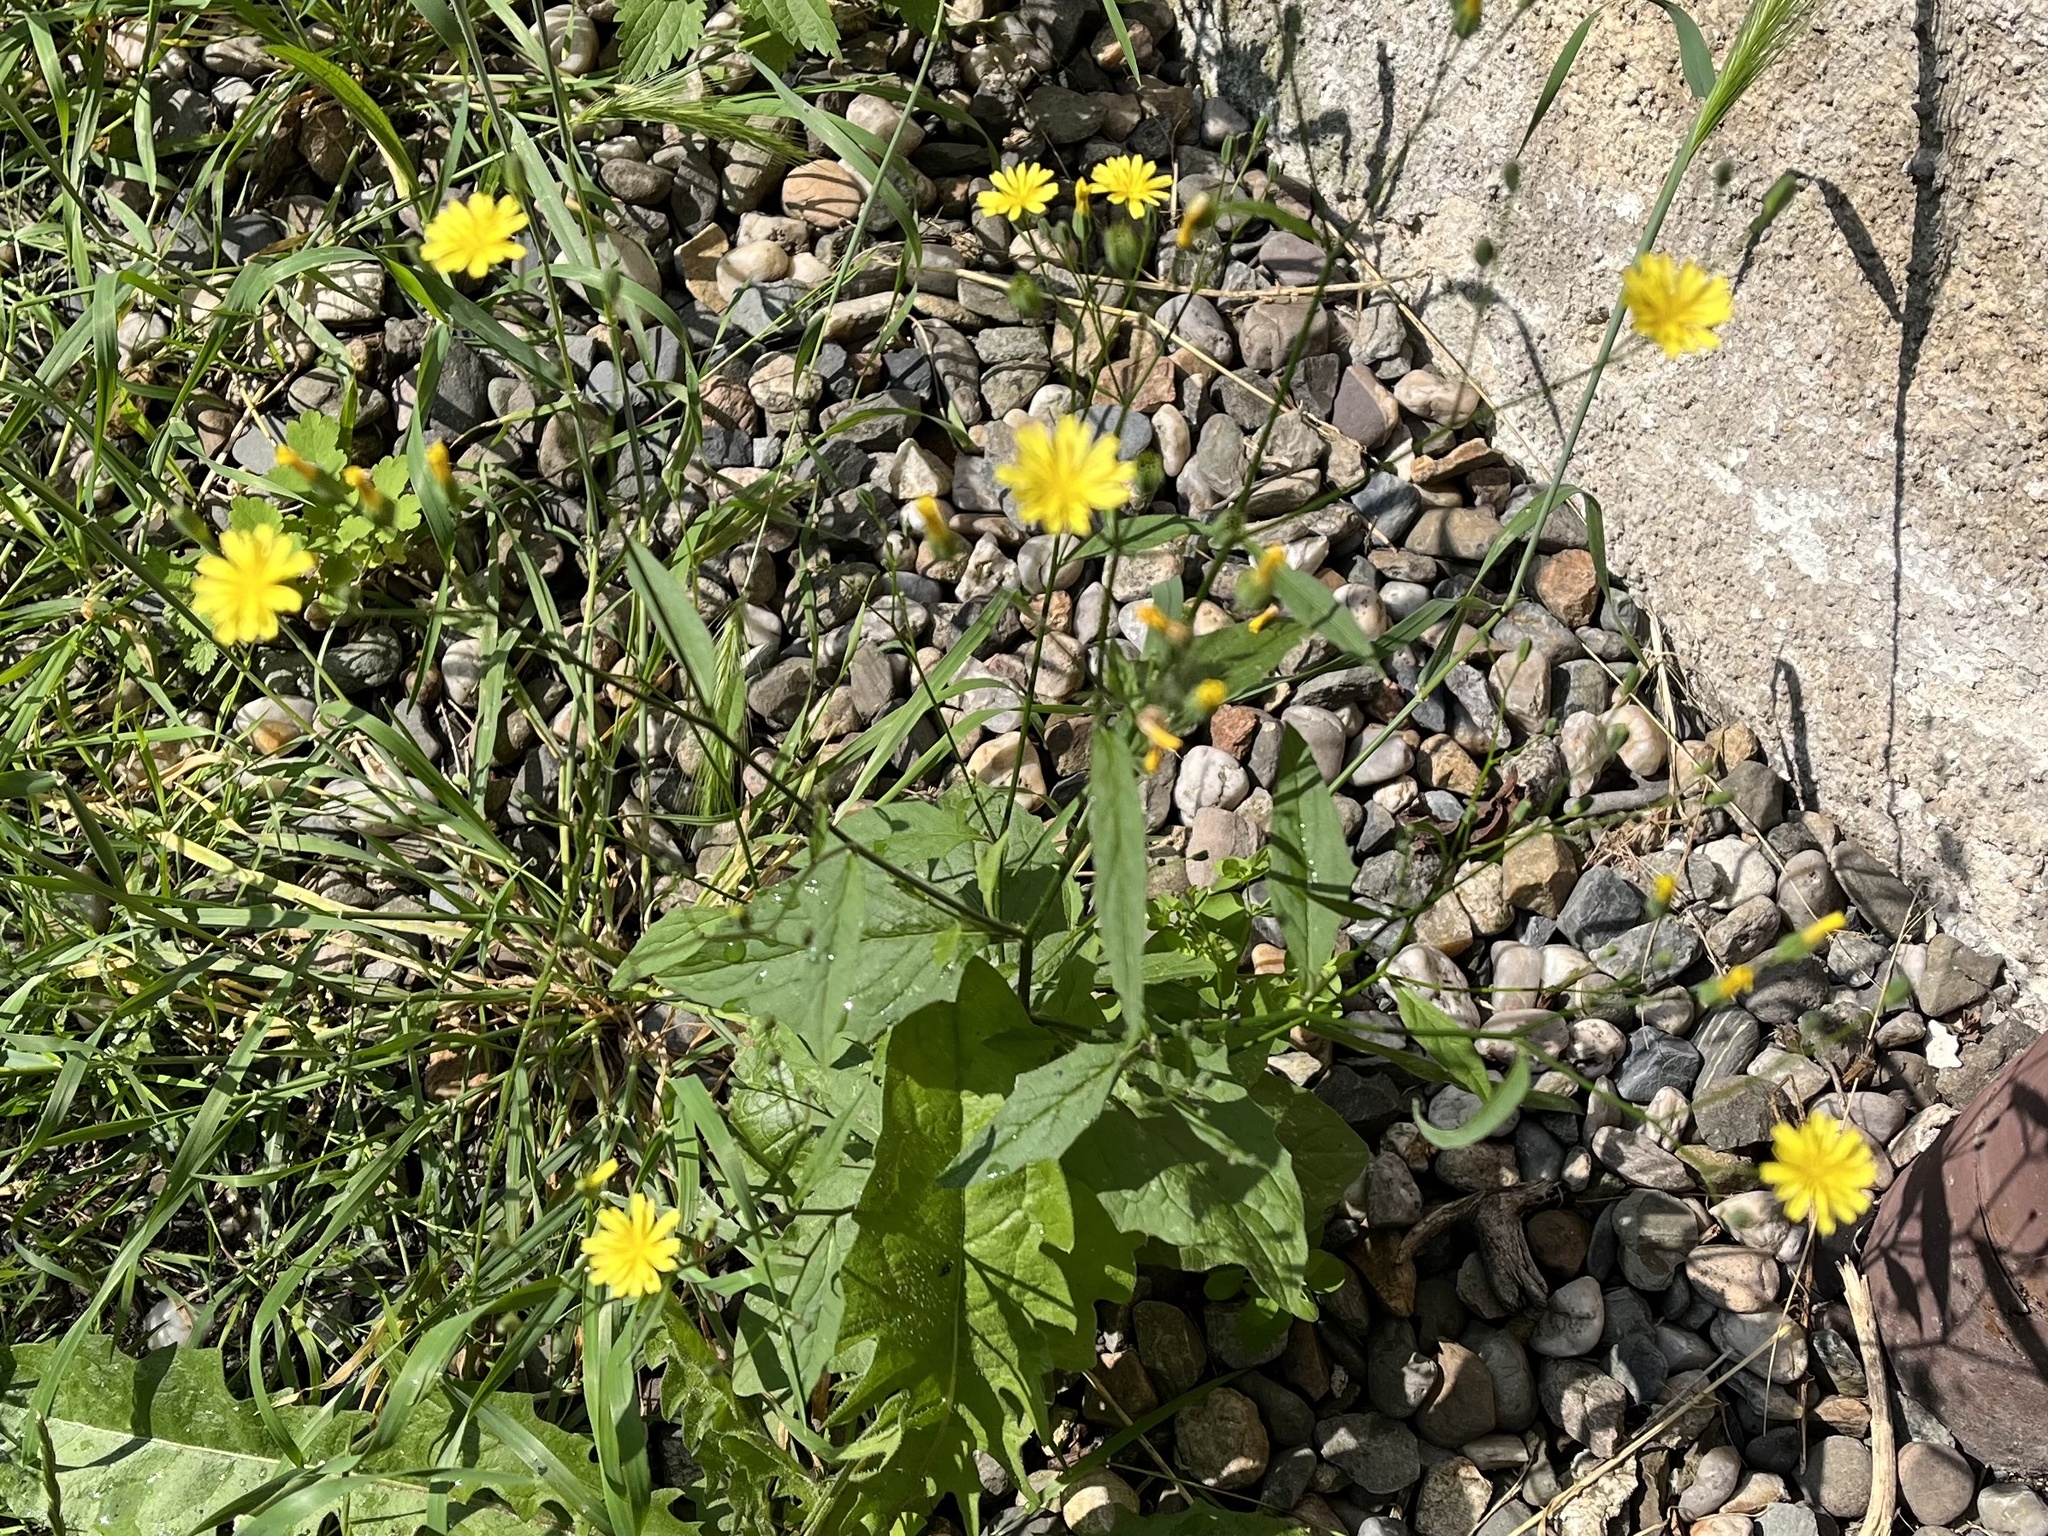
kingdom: Plantae
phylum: Tracheophyta
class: Magnoliopsida
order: Asterales
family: Asteraceae
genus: Lapsana
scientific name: Lapsana communis
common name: Nipplewort
